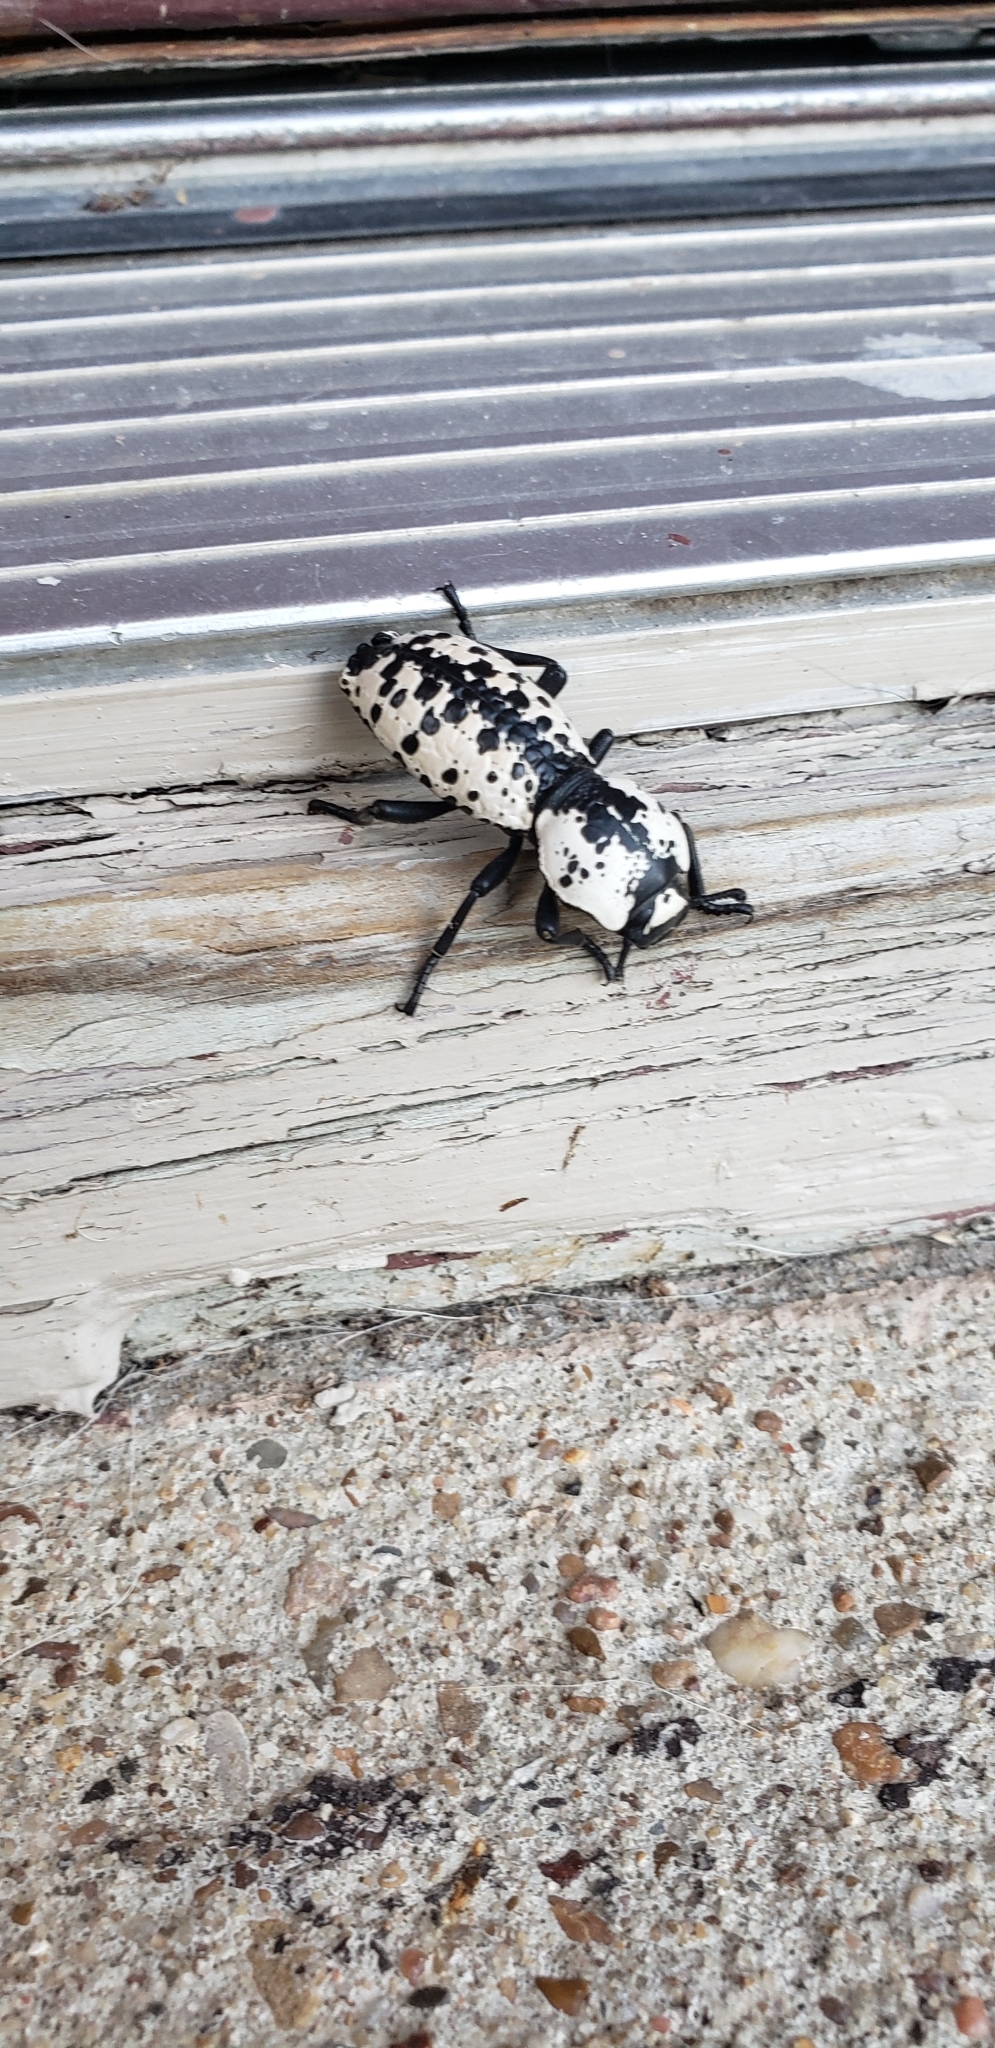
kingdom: Animalia
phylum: Arthropoda
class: Insecta
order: Coleoptera
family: Zopheridae
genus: Zopherus
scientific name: Zopherus nodulosus
